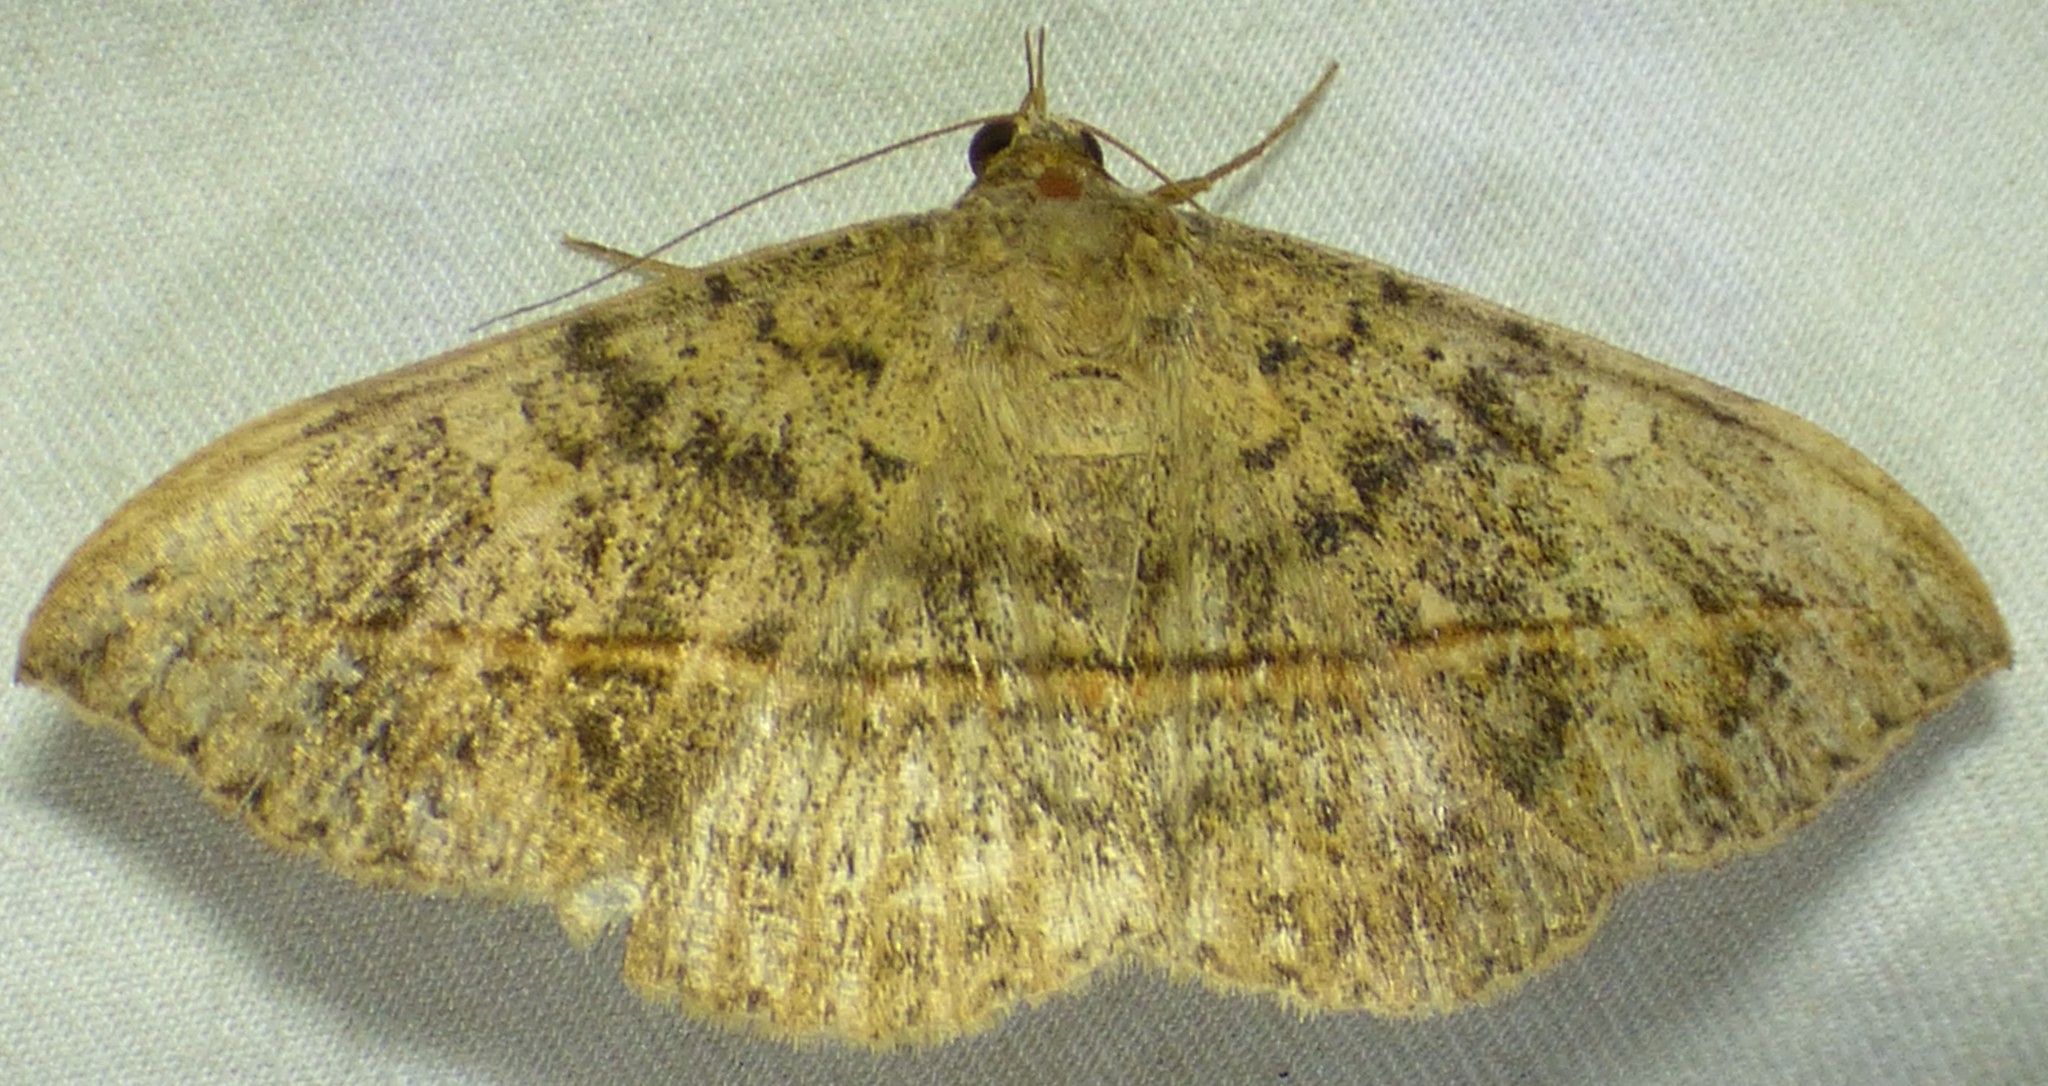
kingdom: Animalia
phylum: Arthropoda
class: Insecta
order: Lepidoptera
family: Erebidae
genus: Anticarsia
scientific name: Anticarsia gemmatalis
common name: Cutworm moth
